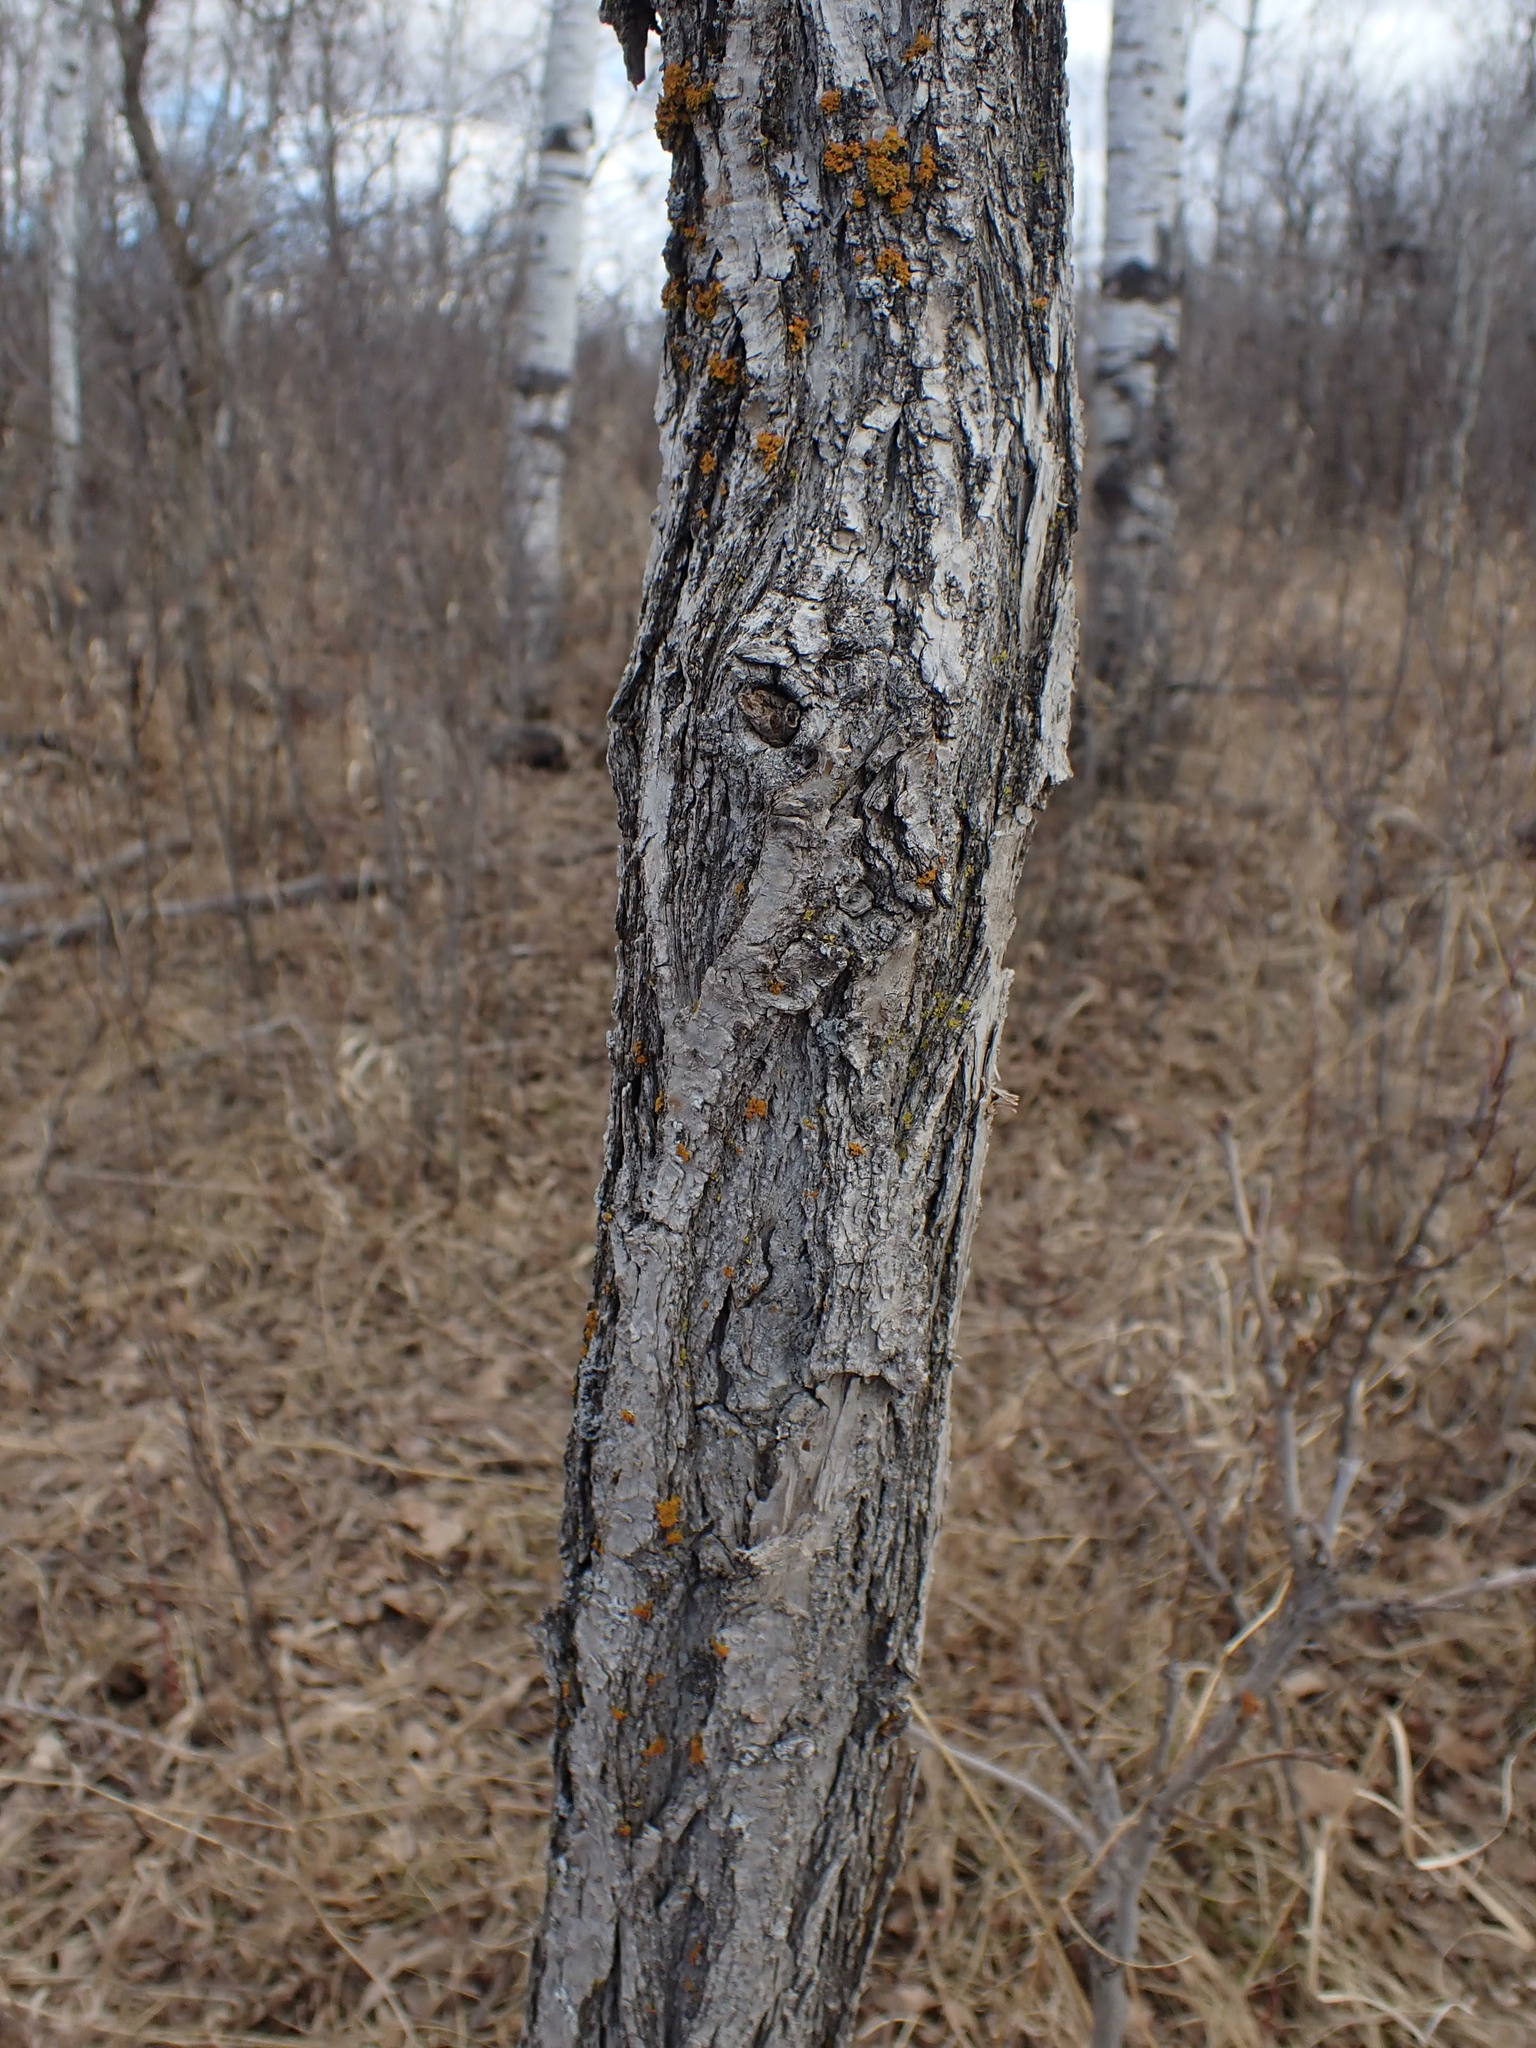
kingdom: Plantae
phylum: Tracheophyta
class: Magnoliopsida
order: Fagales
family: Fagaceae
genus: Quercus
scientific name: Quercus macrocarpa
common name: Bur oak
